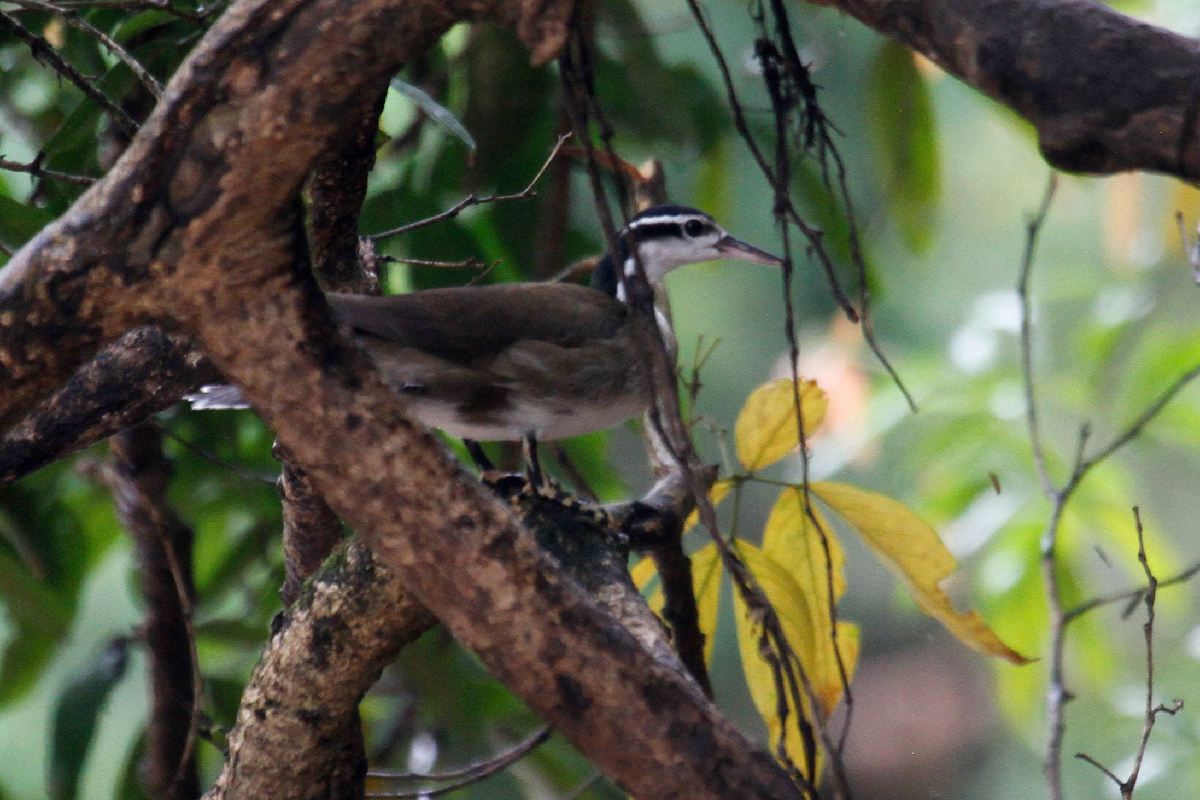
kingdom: Animalia
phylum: Chordata
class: Aves
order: Gruiformes
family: Heliornithidae
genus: Heliornis
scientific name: Heliornis fulica
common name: Sungrebe
